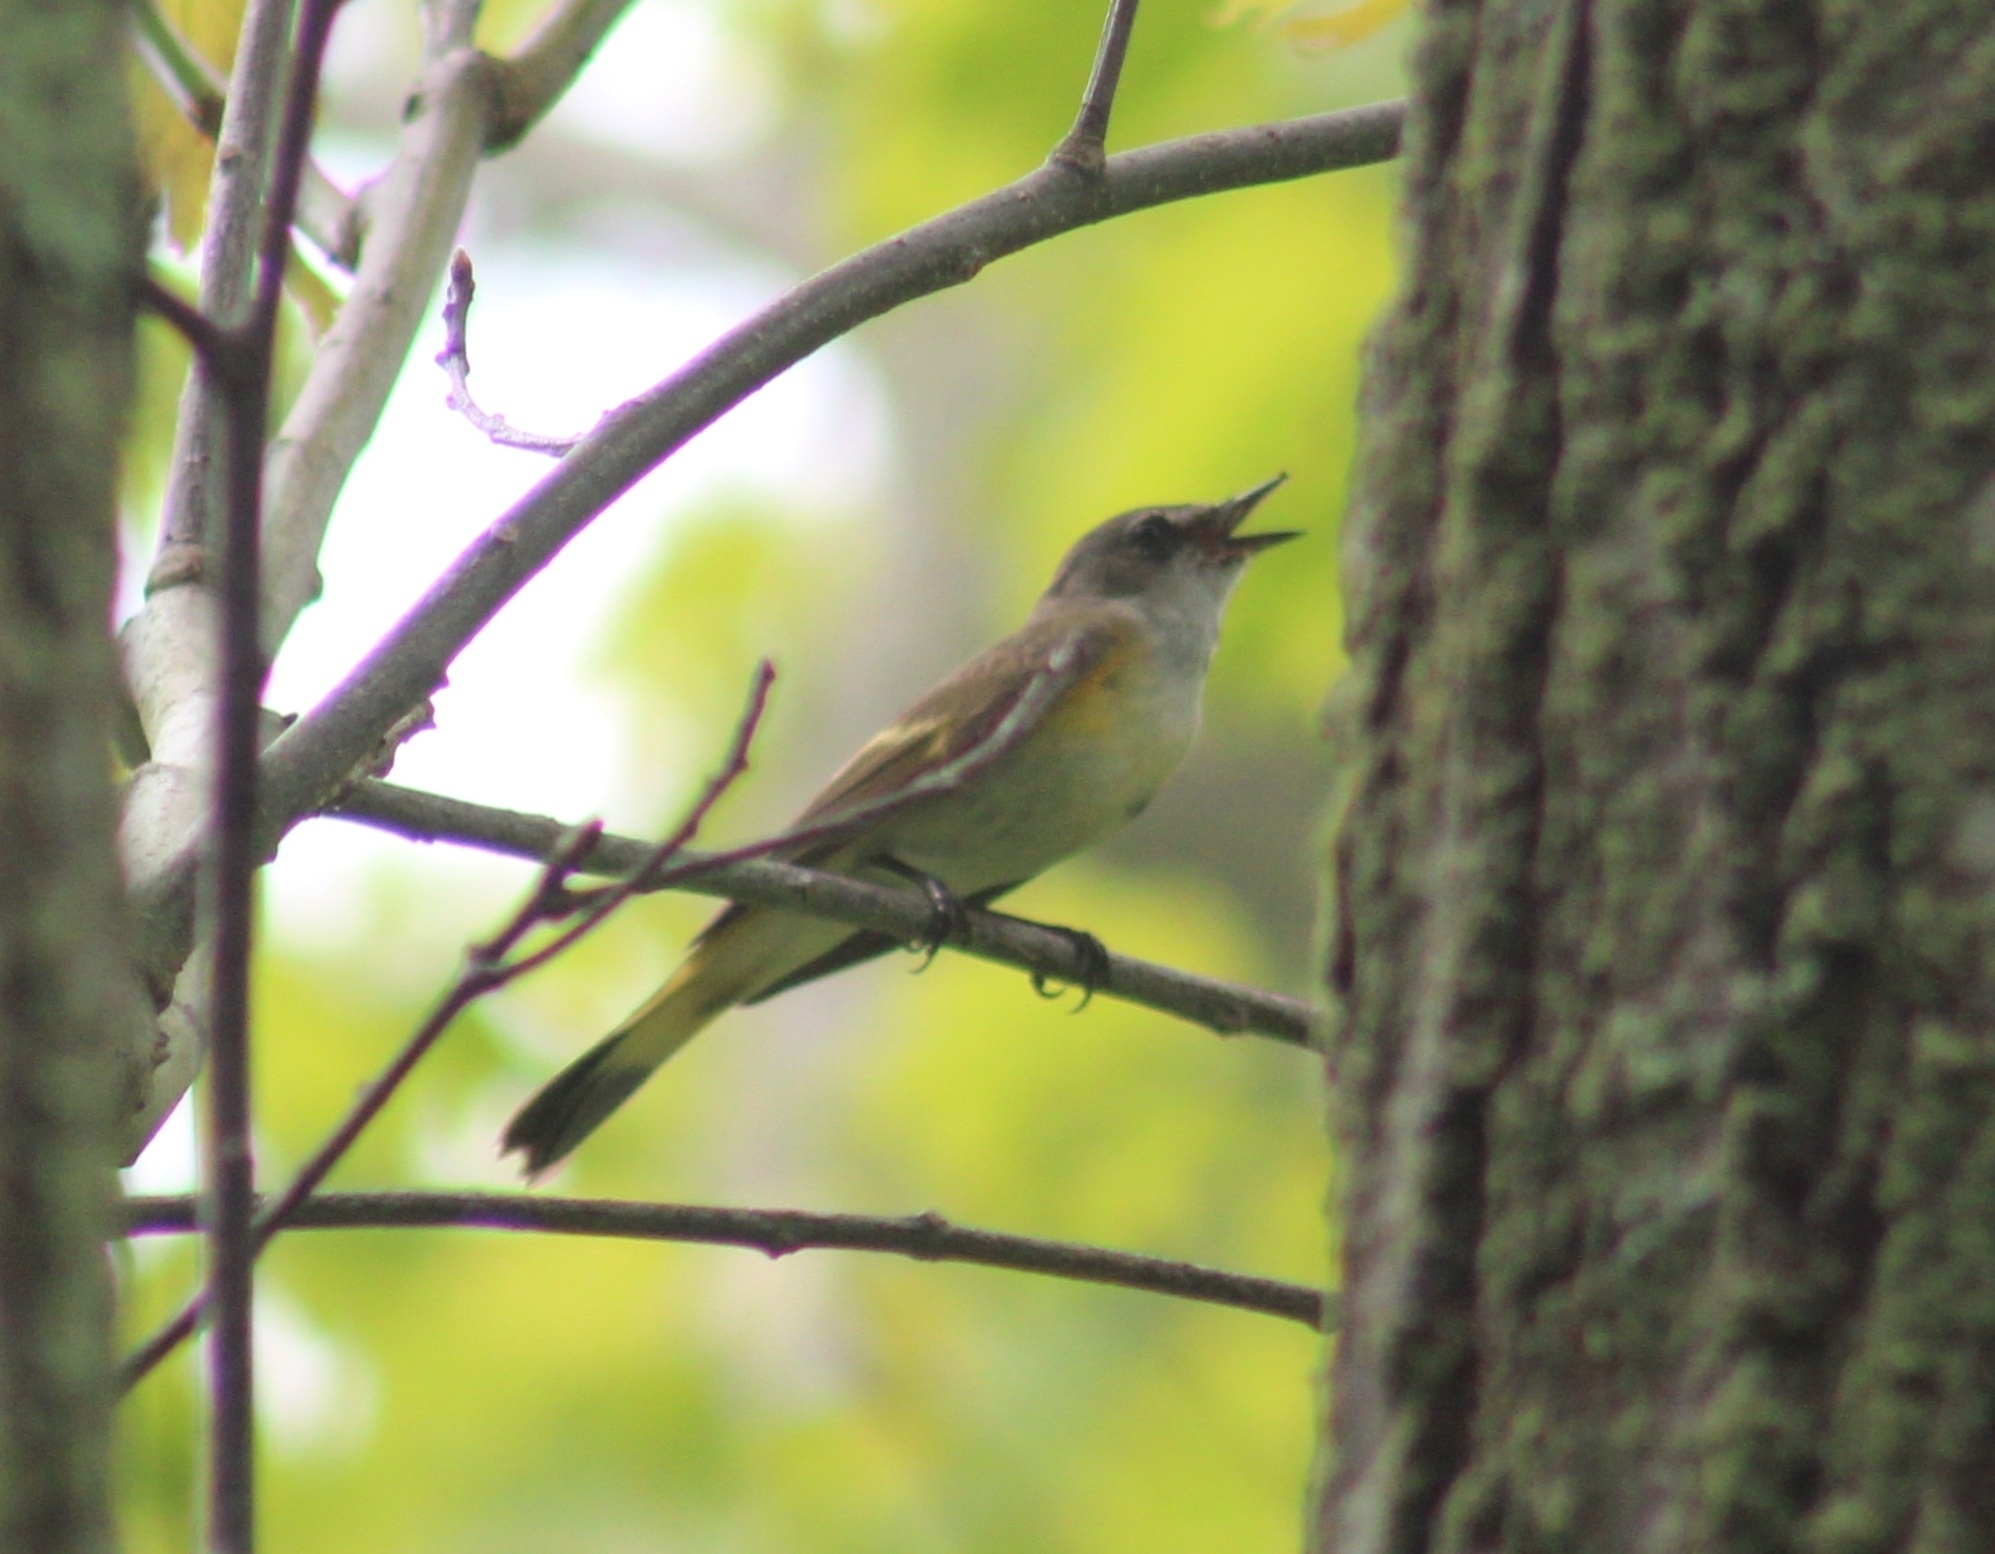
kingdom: Animalia
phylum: Chordata
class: Aves
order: Passeriformes
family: Parulidae
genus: Setophaga
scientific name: Setophaga ruticilla
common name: American redstart
